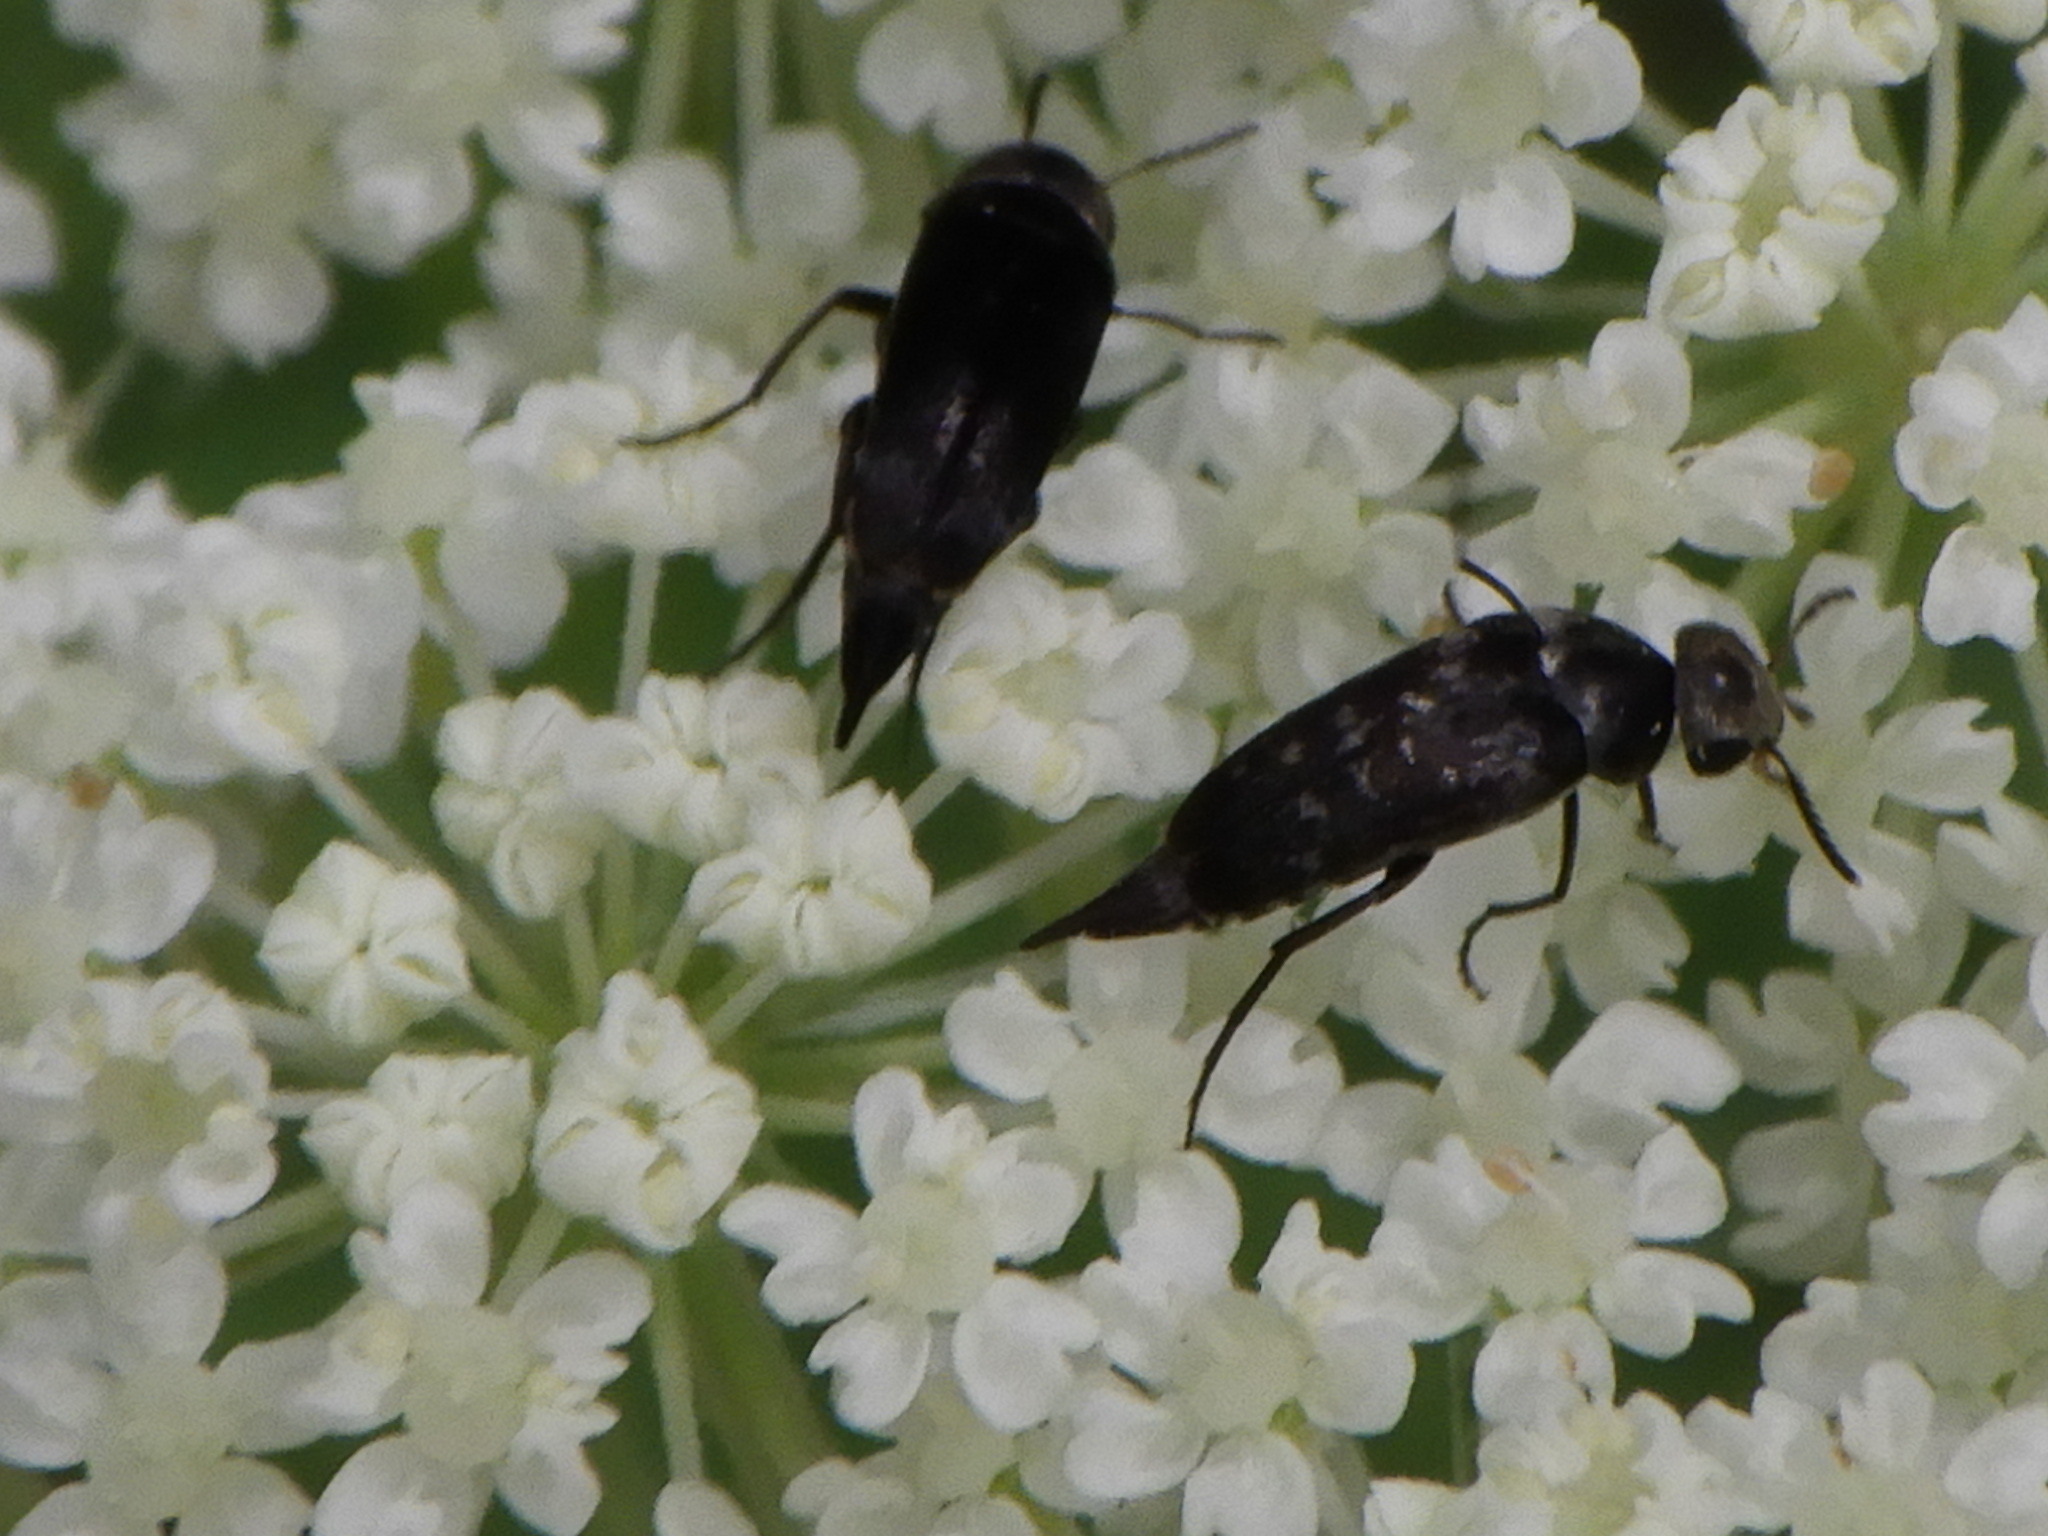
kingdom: Animalia
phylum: Arthropoda
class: Insecta
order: Coleoptera
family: Mordellidae
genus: Mordella
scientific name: Mordella marginata
